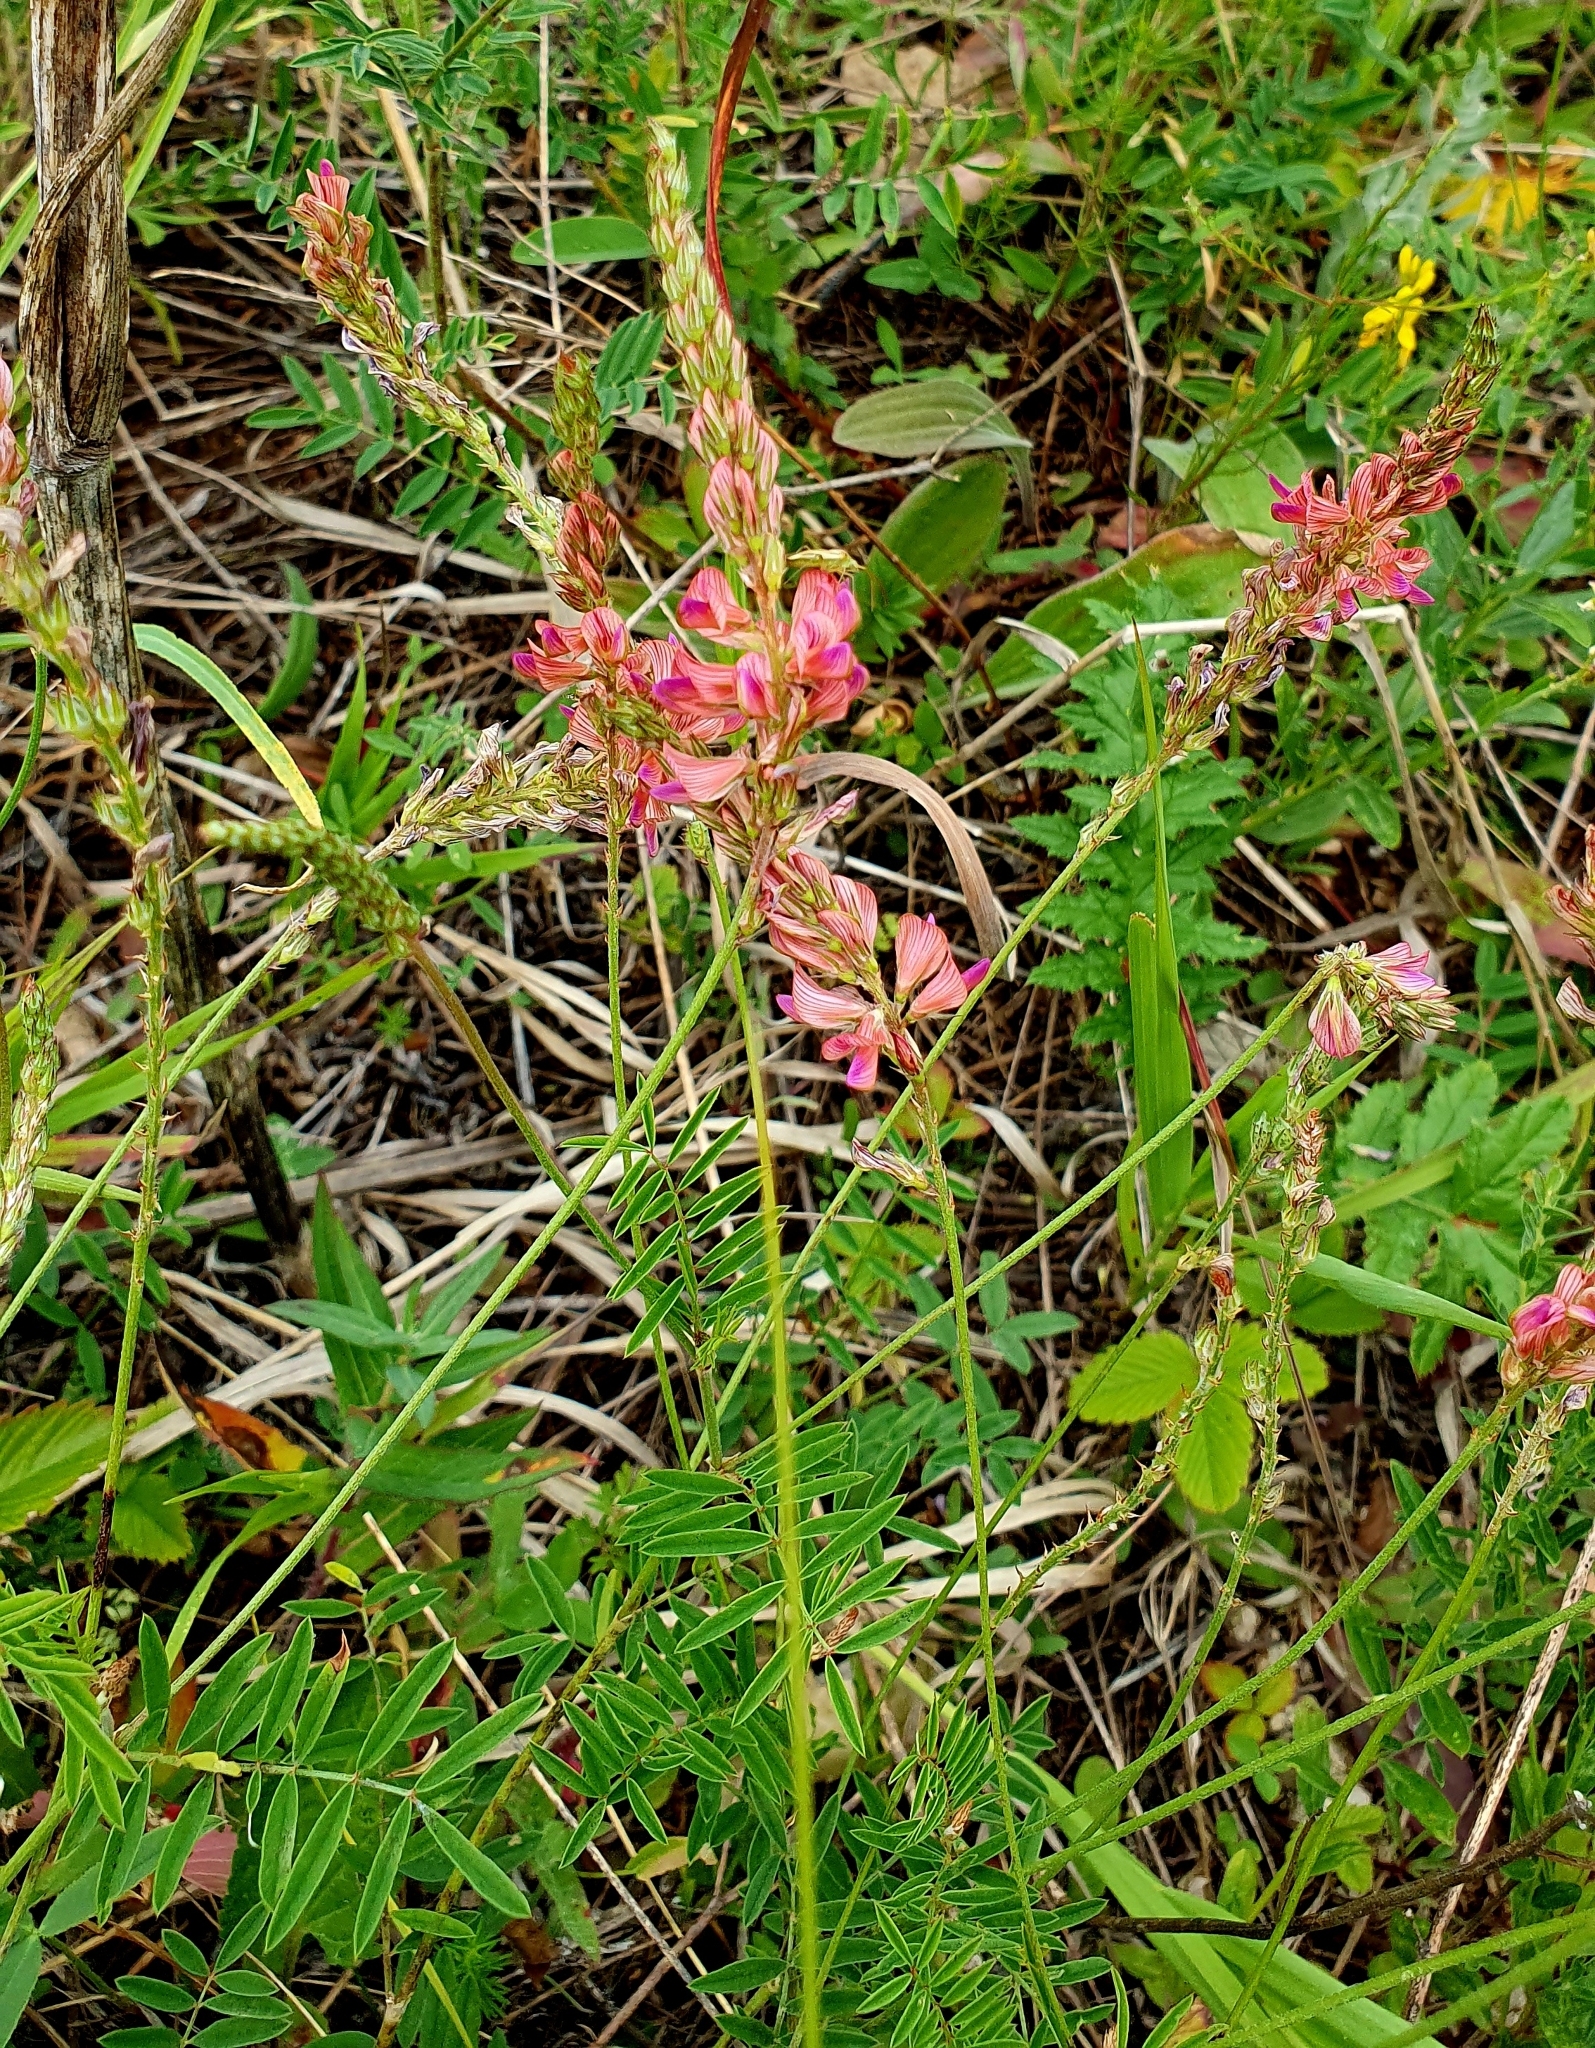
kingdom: Plantae
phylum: Tracheophyta
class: Magnoliopsida
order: Fabales
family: Fabaceae
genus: Onobrychis
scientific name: Onobrychis viciifolia
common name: Sainfoin
